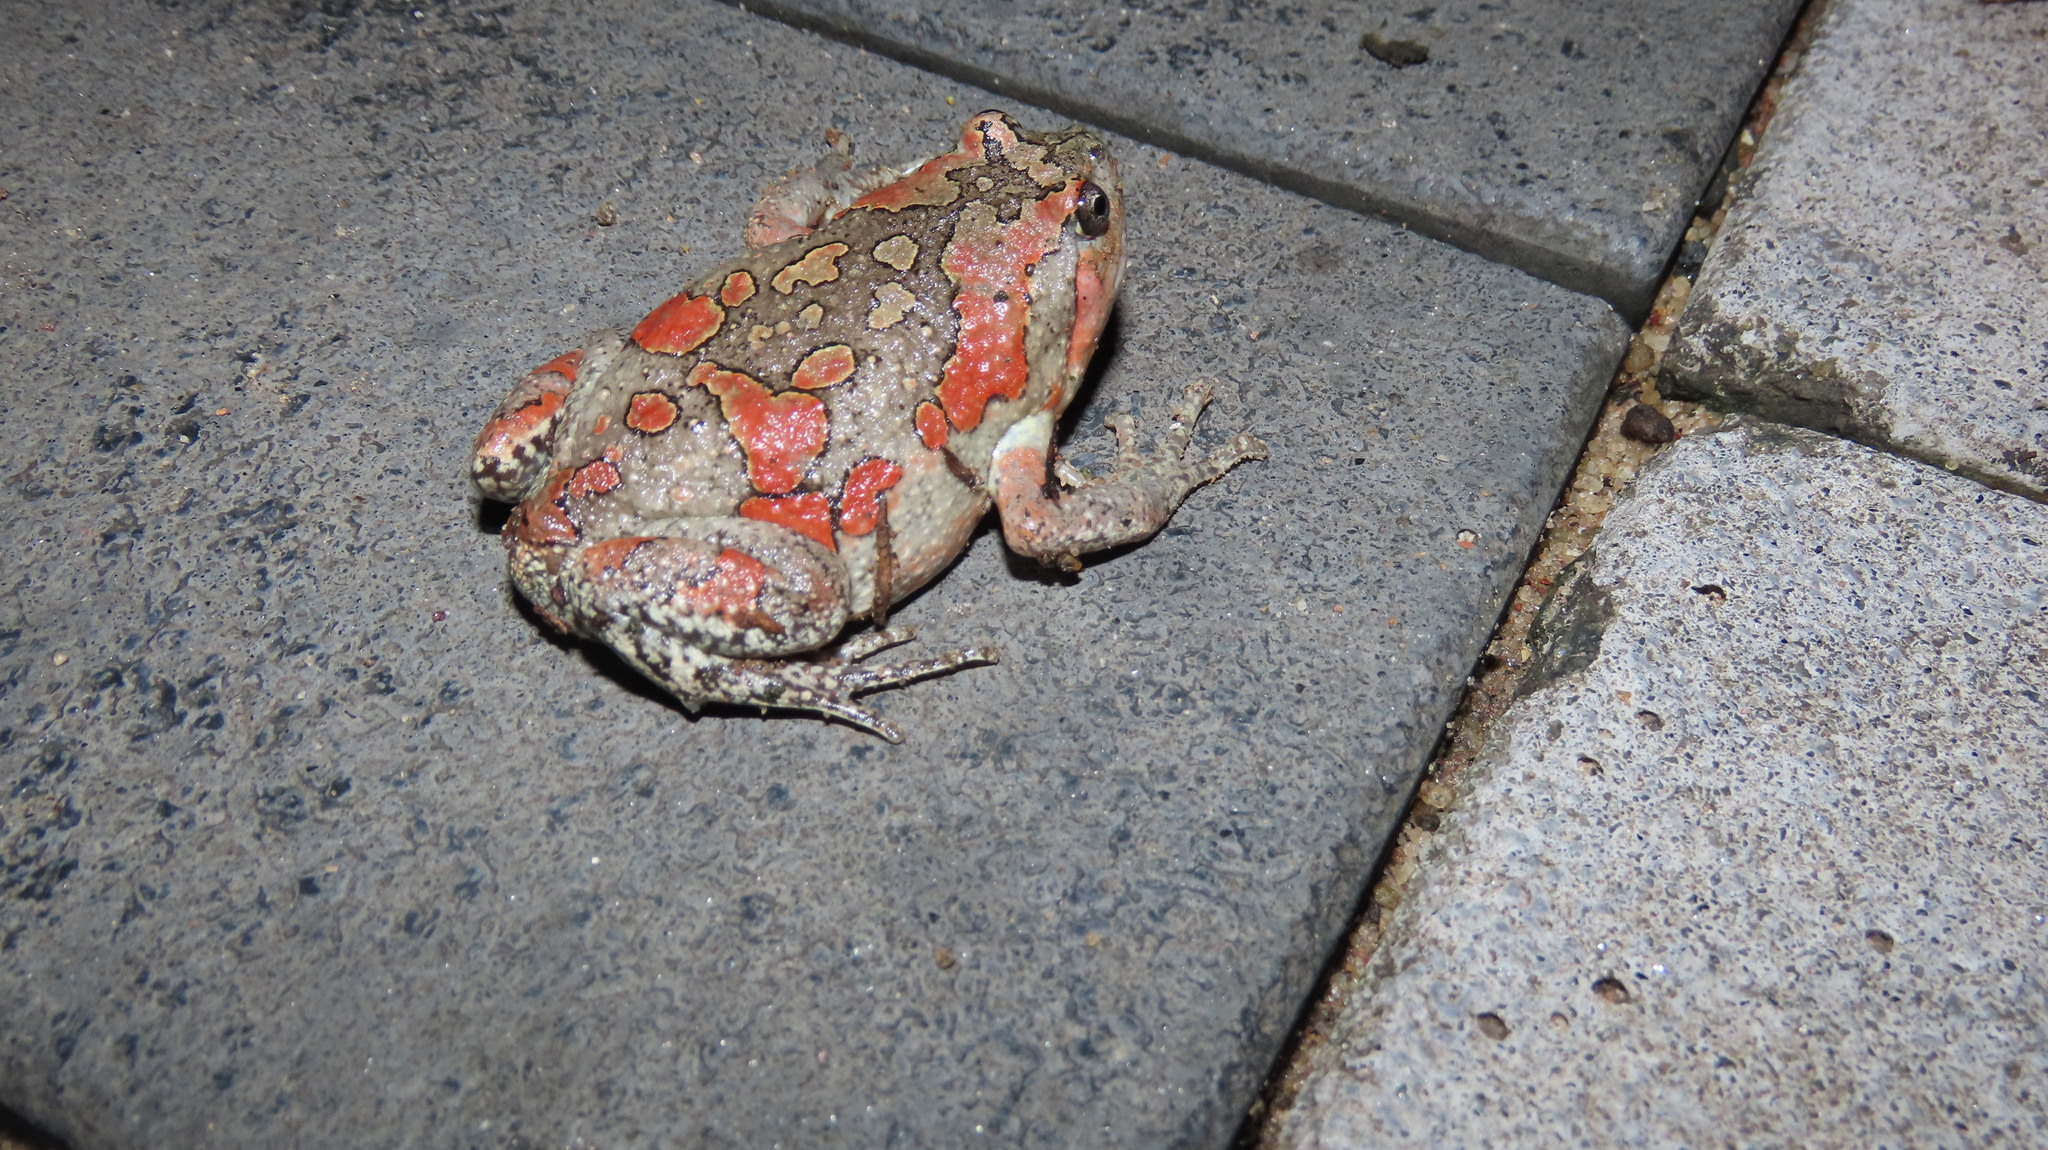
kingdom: Animalia
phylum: Chordata
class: Amphibia
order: Anura
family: Microhylidae
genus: Uperodon
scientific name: Uperodon taprobanicus
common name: Ceylon kaloula
